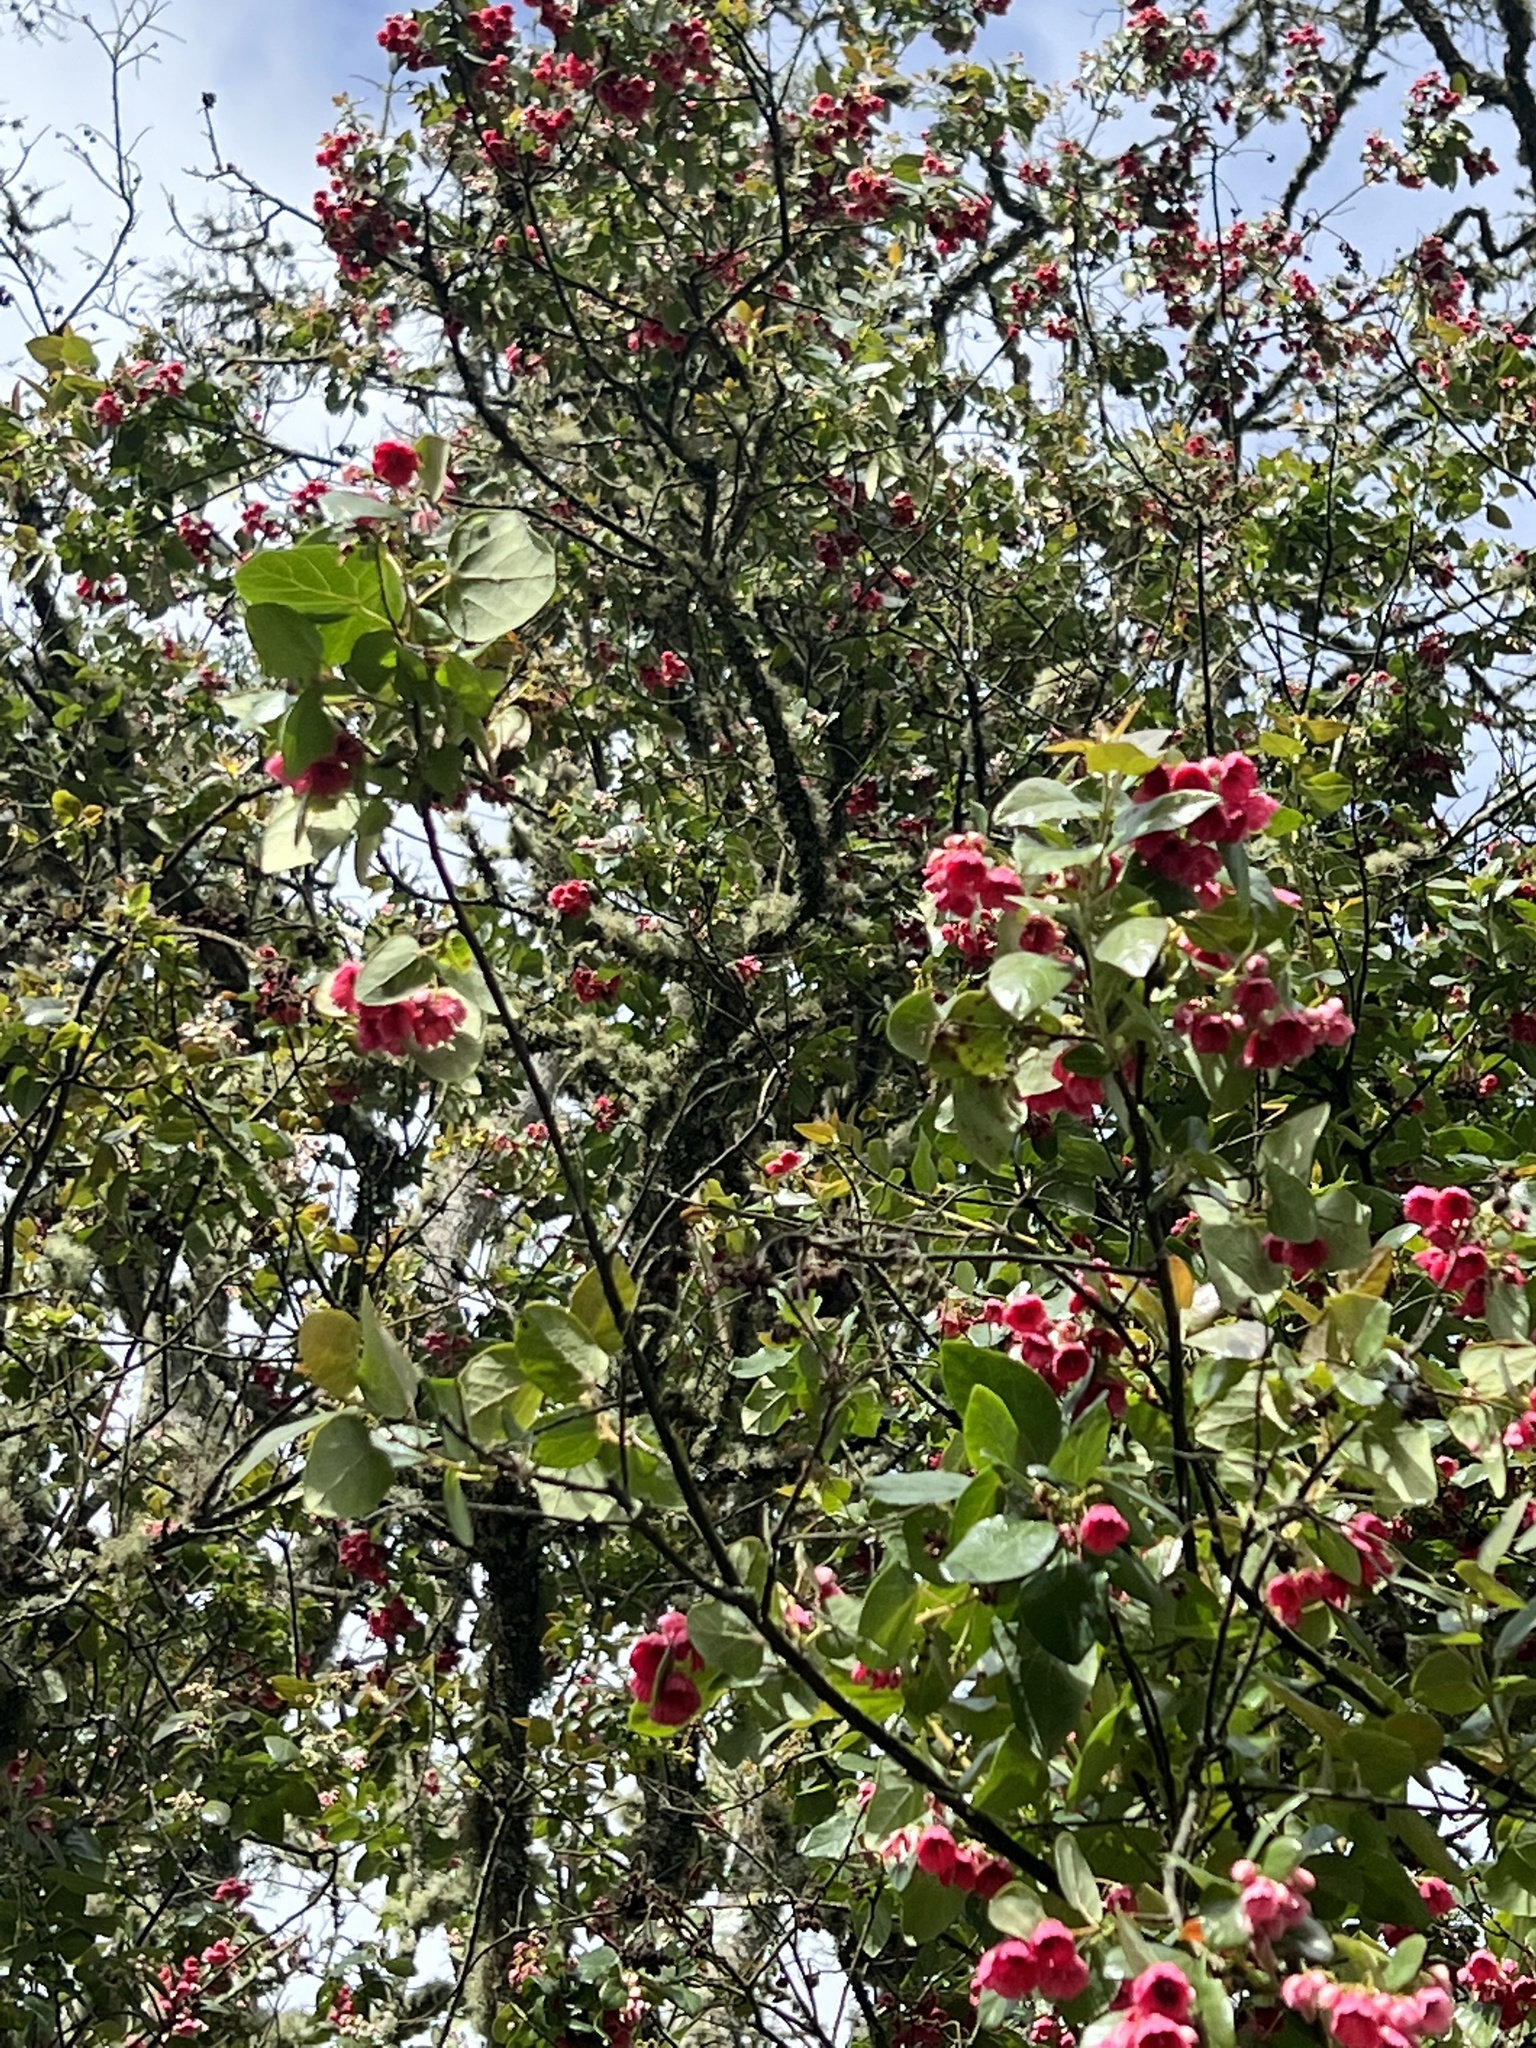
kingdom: Plantae
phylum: Tracheophyta
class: Magnoliopsida
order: Oxalidales
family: Elaeocarpaceae
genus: Vallea
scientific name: Vallea stipularis
